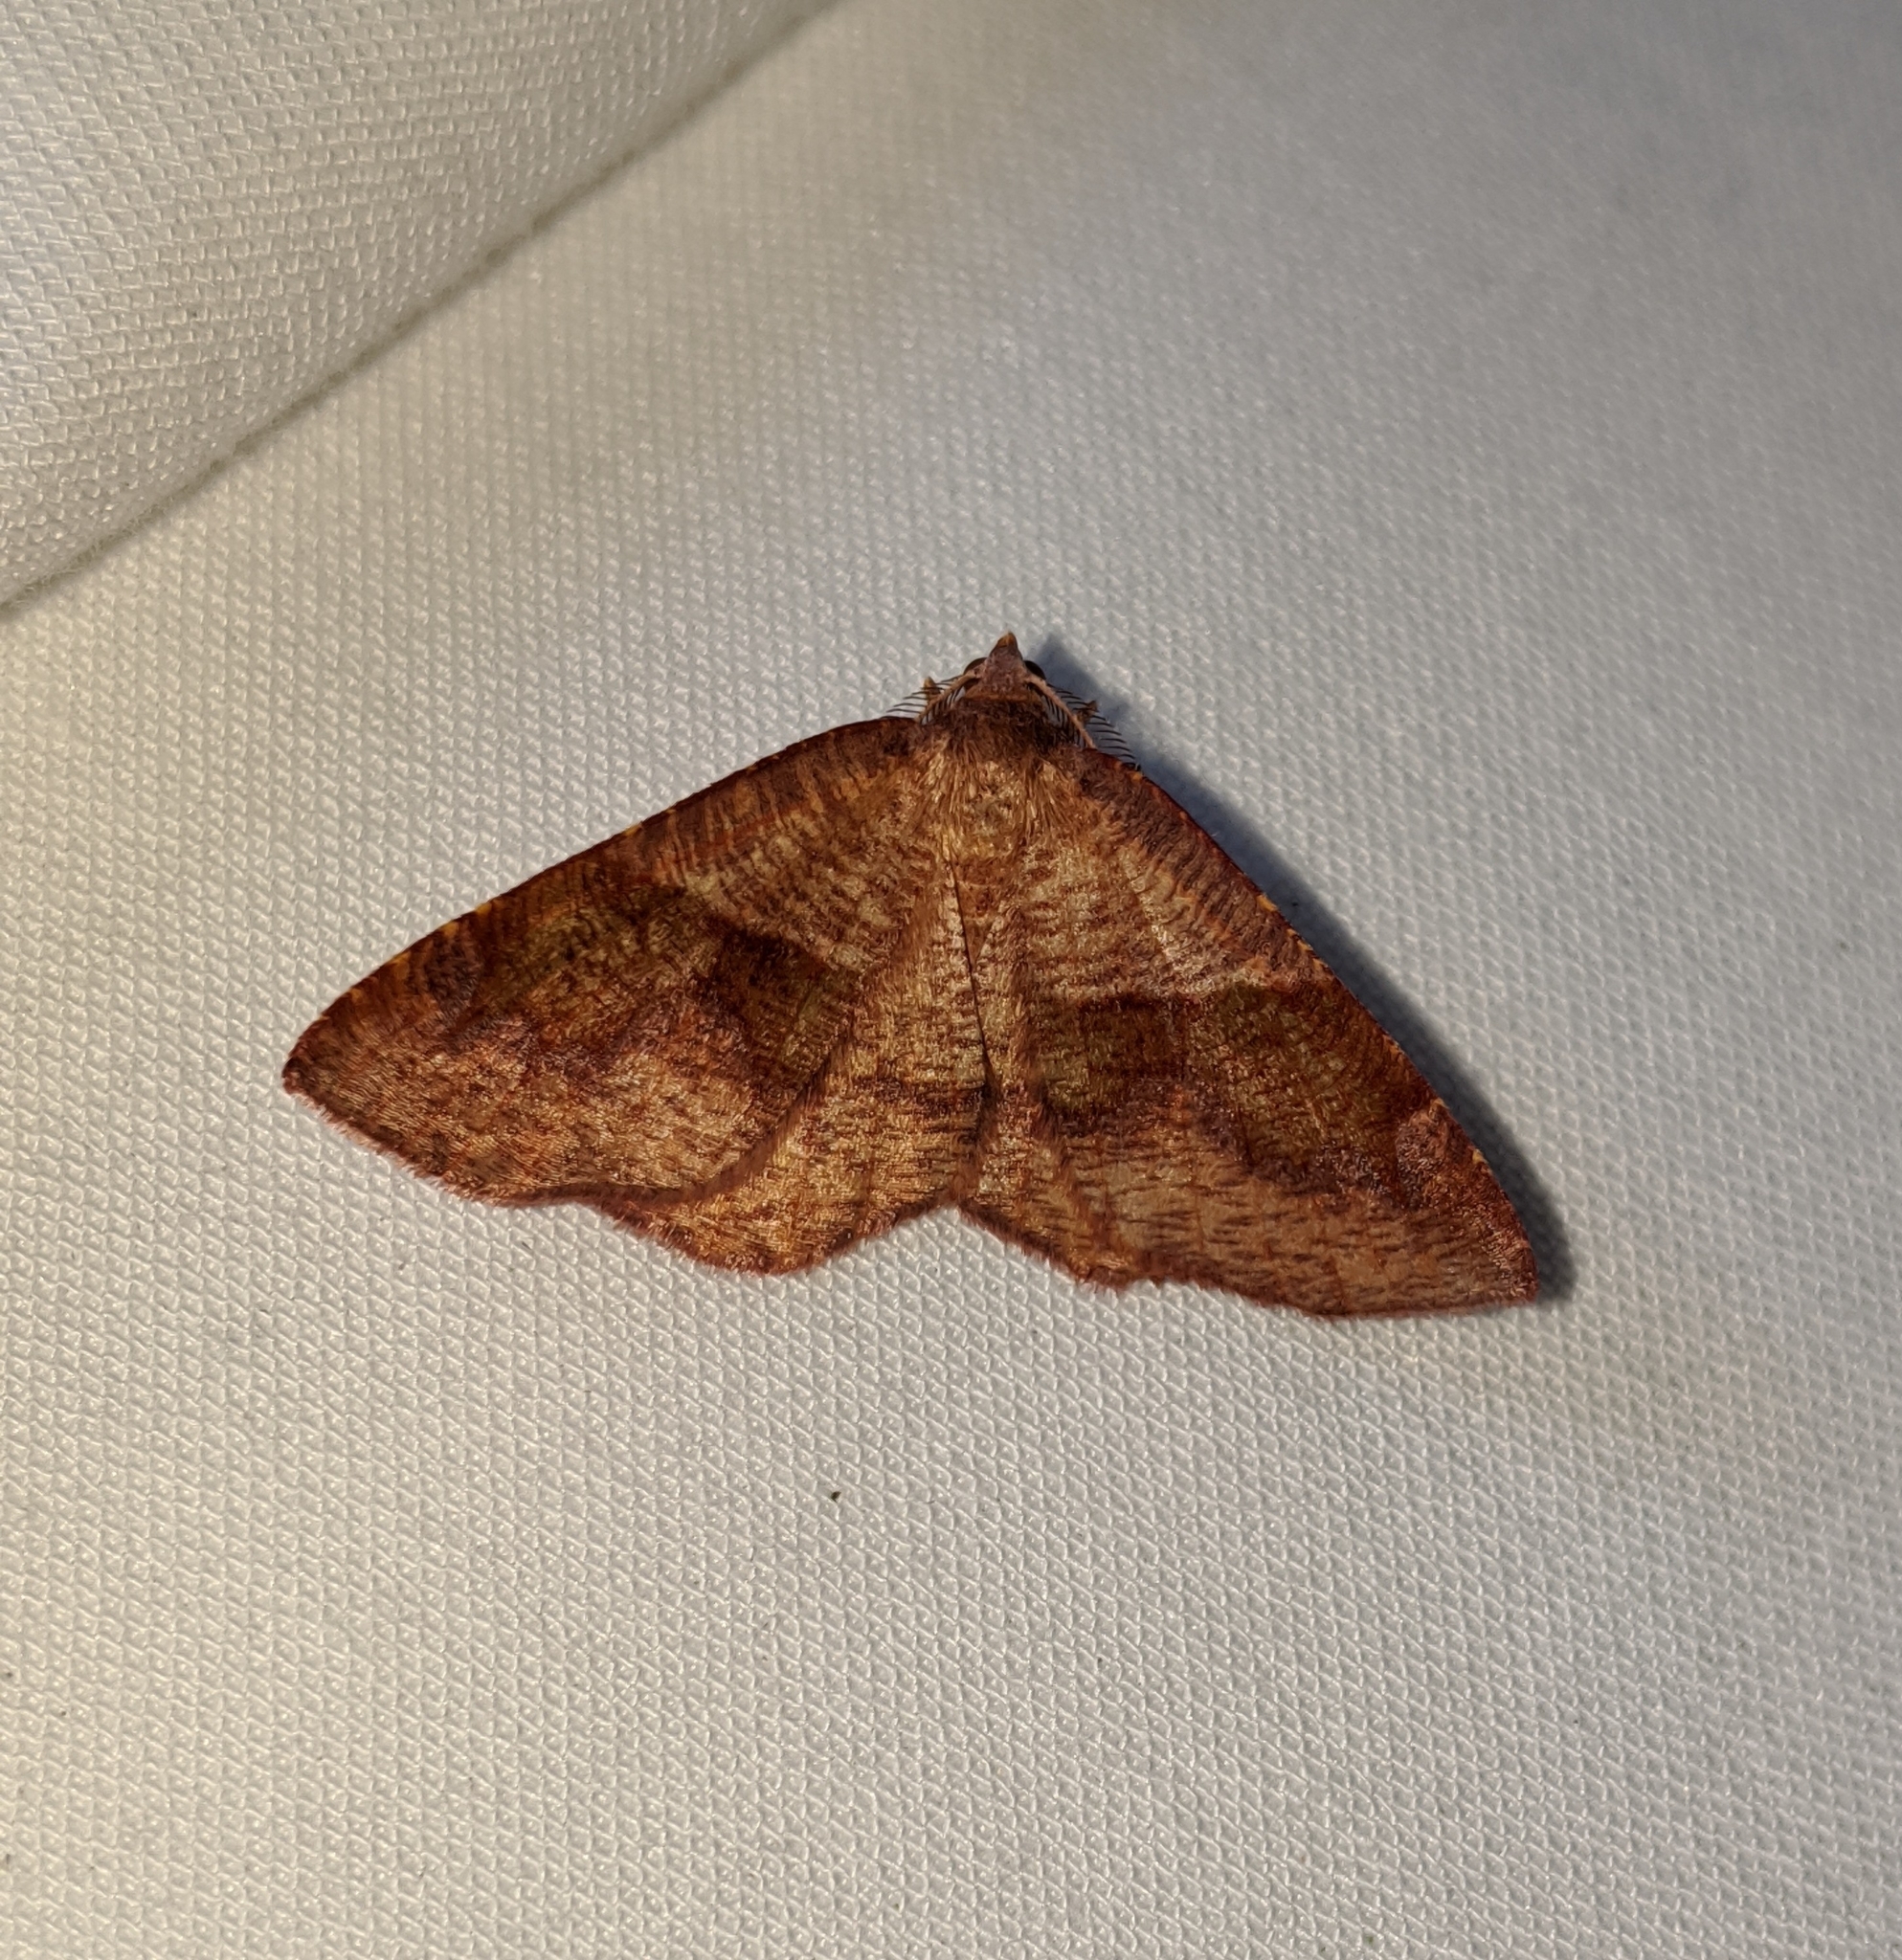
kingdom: Animalia
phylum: Arthropoda
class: Insecta
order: Lepidoptera
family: Geometridae
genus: Plagodis
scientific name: Plagodis pulveraria
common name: Barred umber
